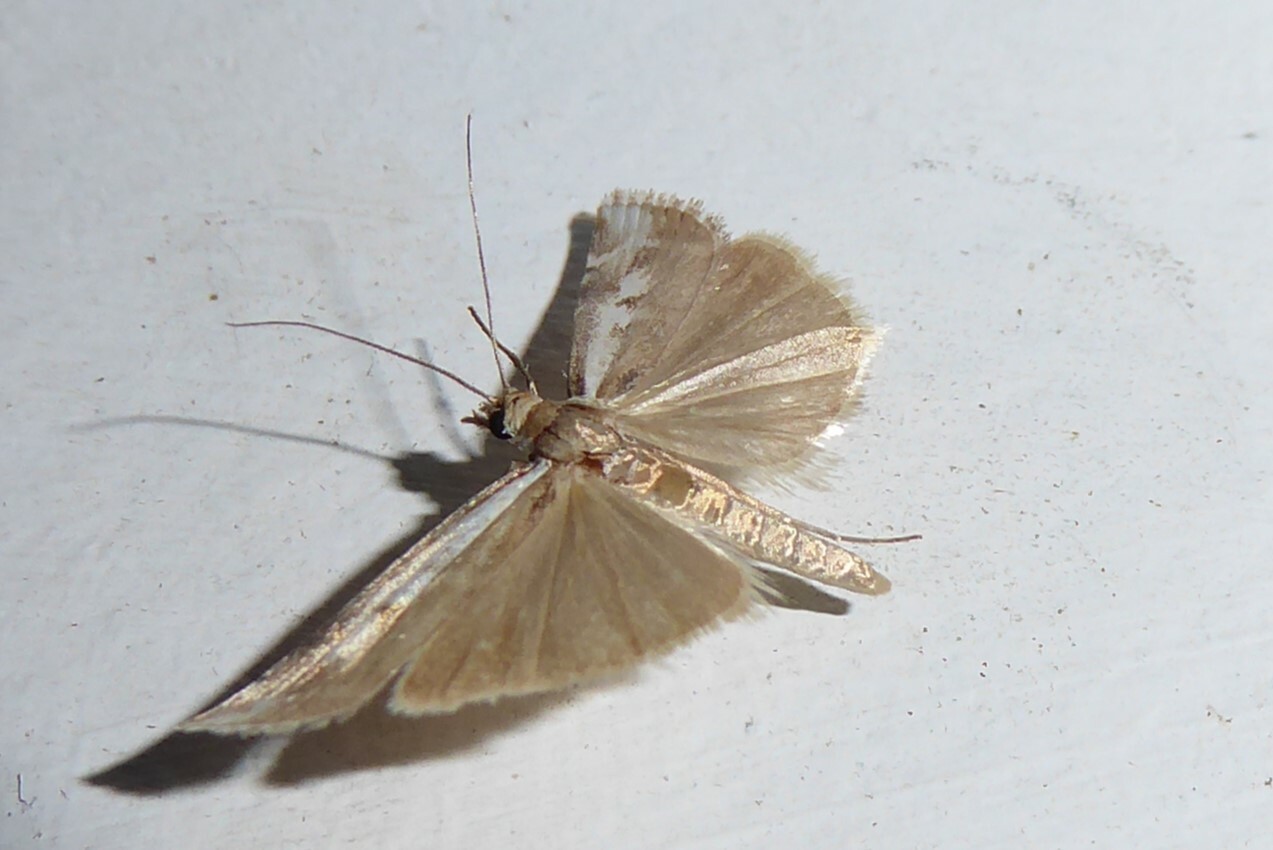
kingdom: Animalia
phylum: Arthropoda
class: Insecta
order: Lepidoptera
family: Crambidae
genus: Orocrambus
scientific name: Orocrambus vulgaris
